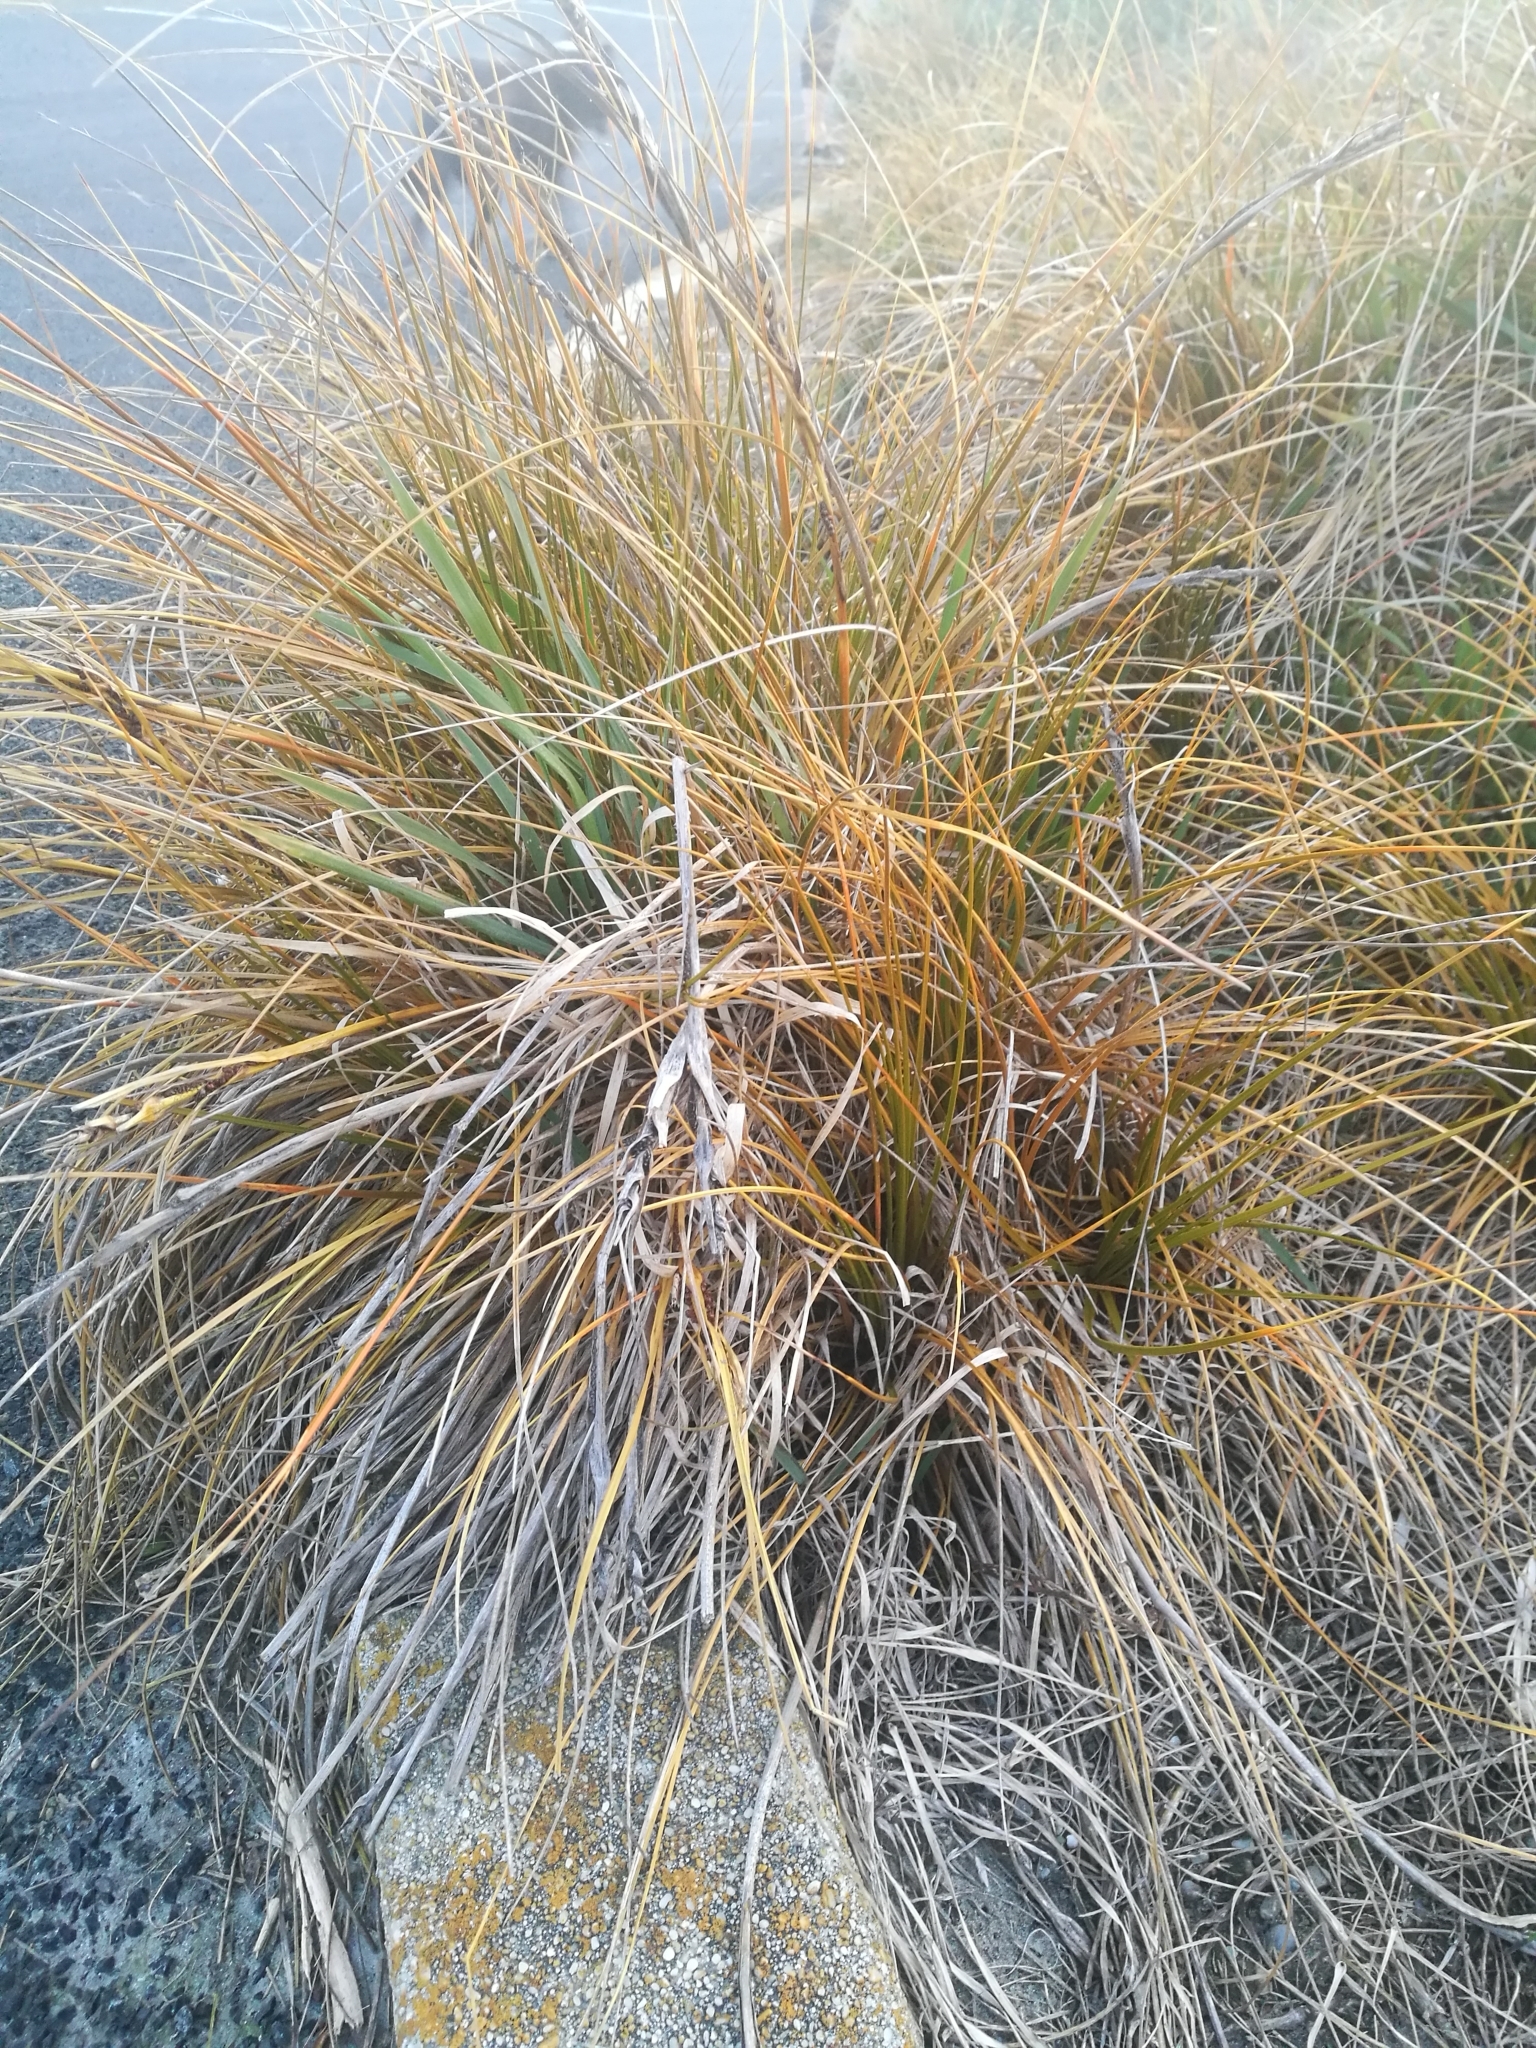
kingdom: Plantae
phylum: Tracheophyta
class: Liliopsida
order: Poales
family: Cyperaceae
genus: Ficinia
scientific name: Ficinia spiralis
